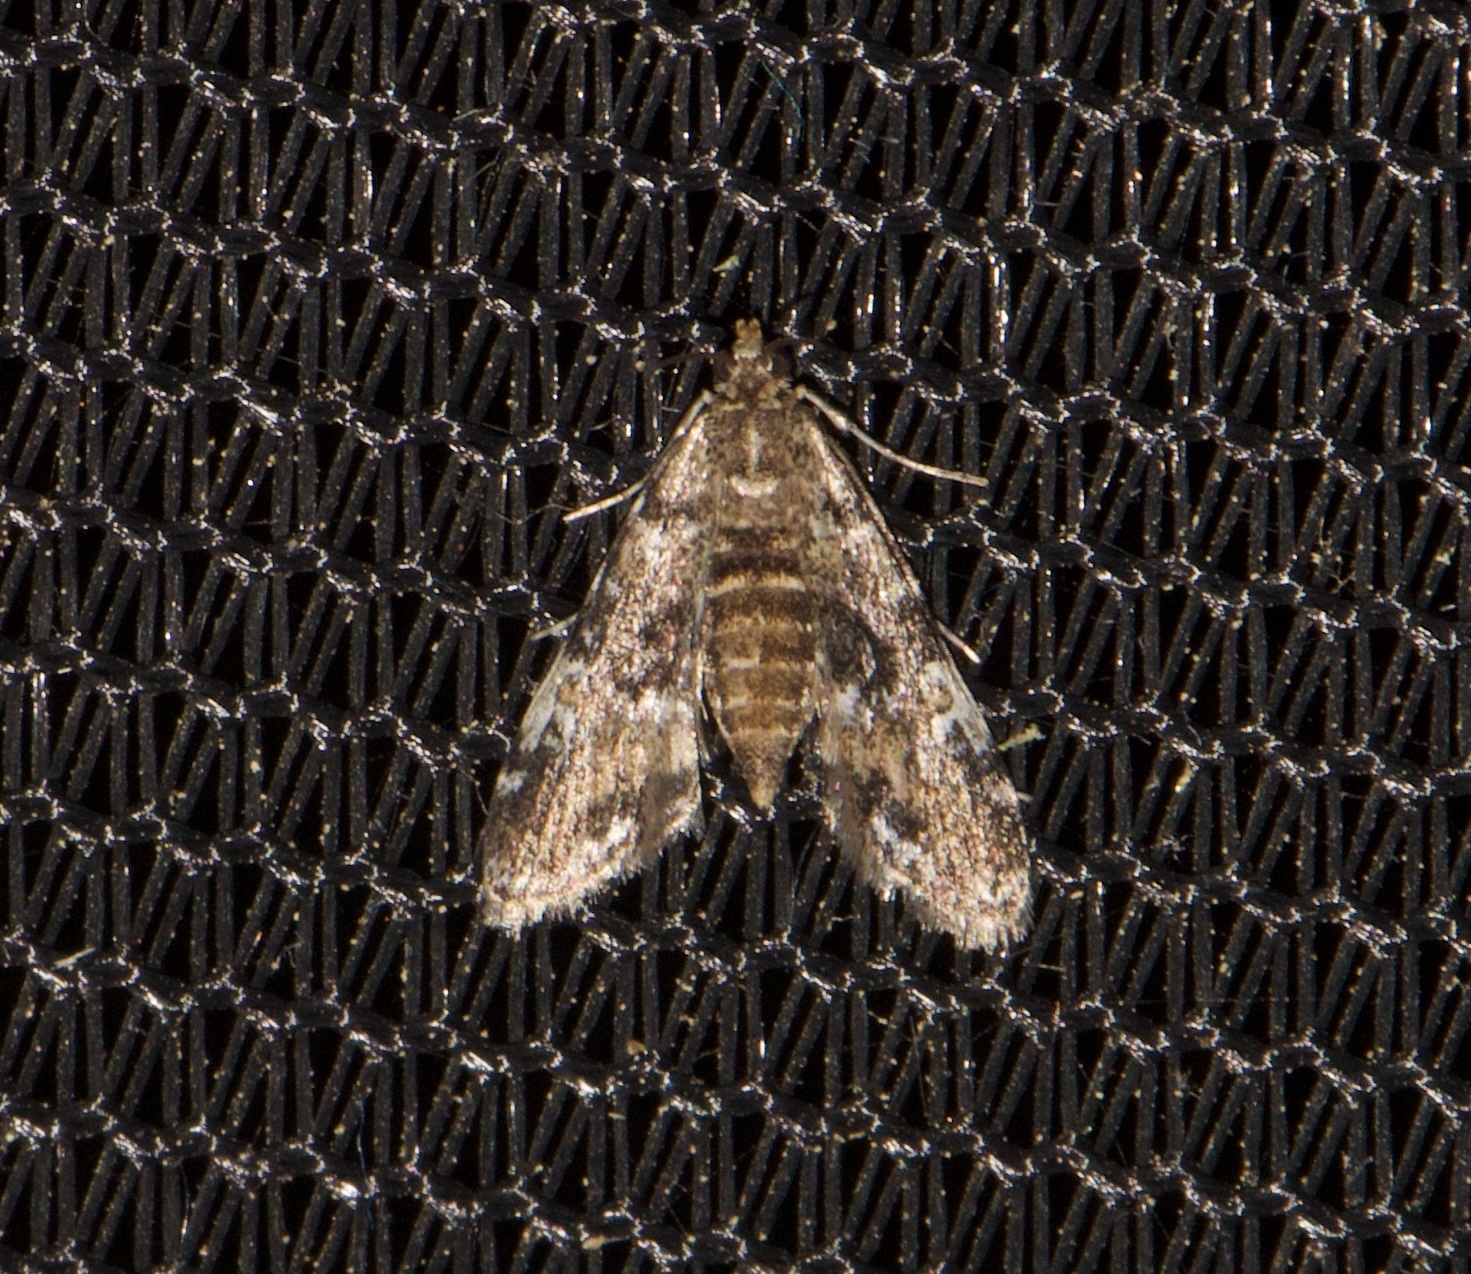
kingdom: Animalia
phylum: Arthropoda
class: Insecta
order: Lepidoptera
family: Crambidae
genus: Elophila
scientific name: Elophila obliteralis
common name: Waterlily leafcutter moth
